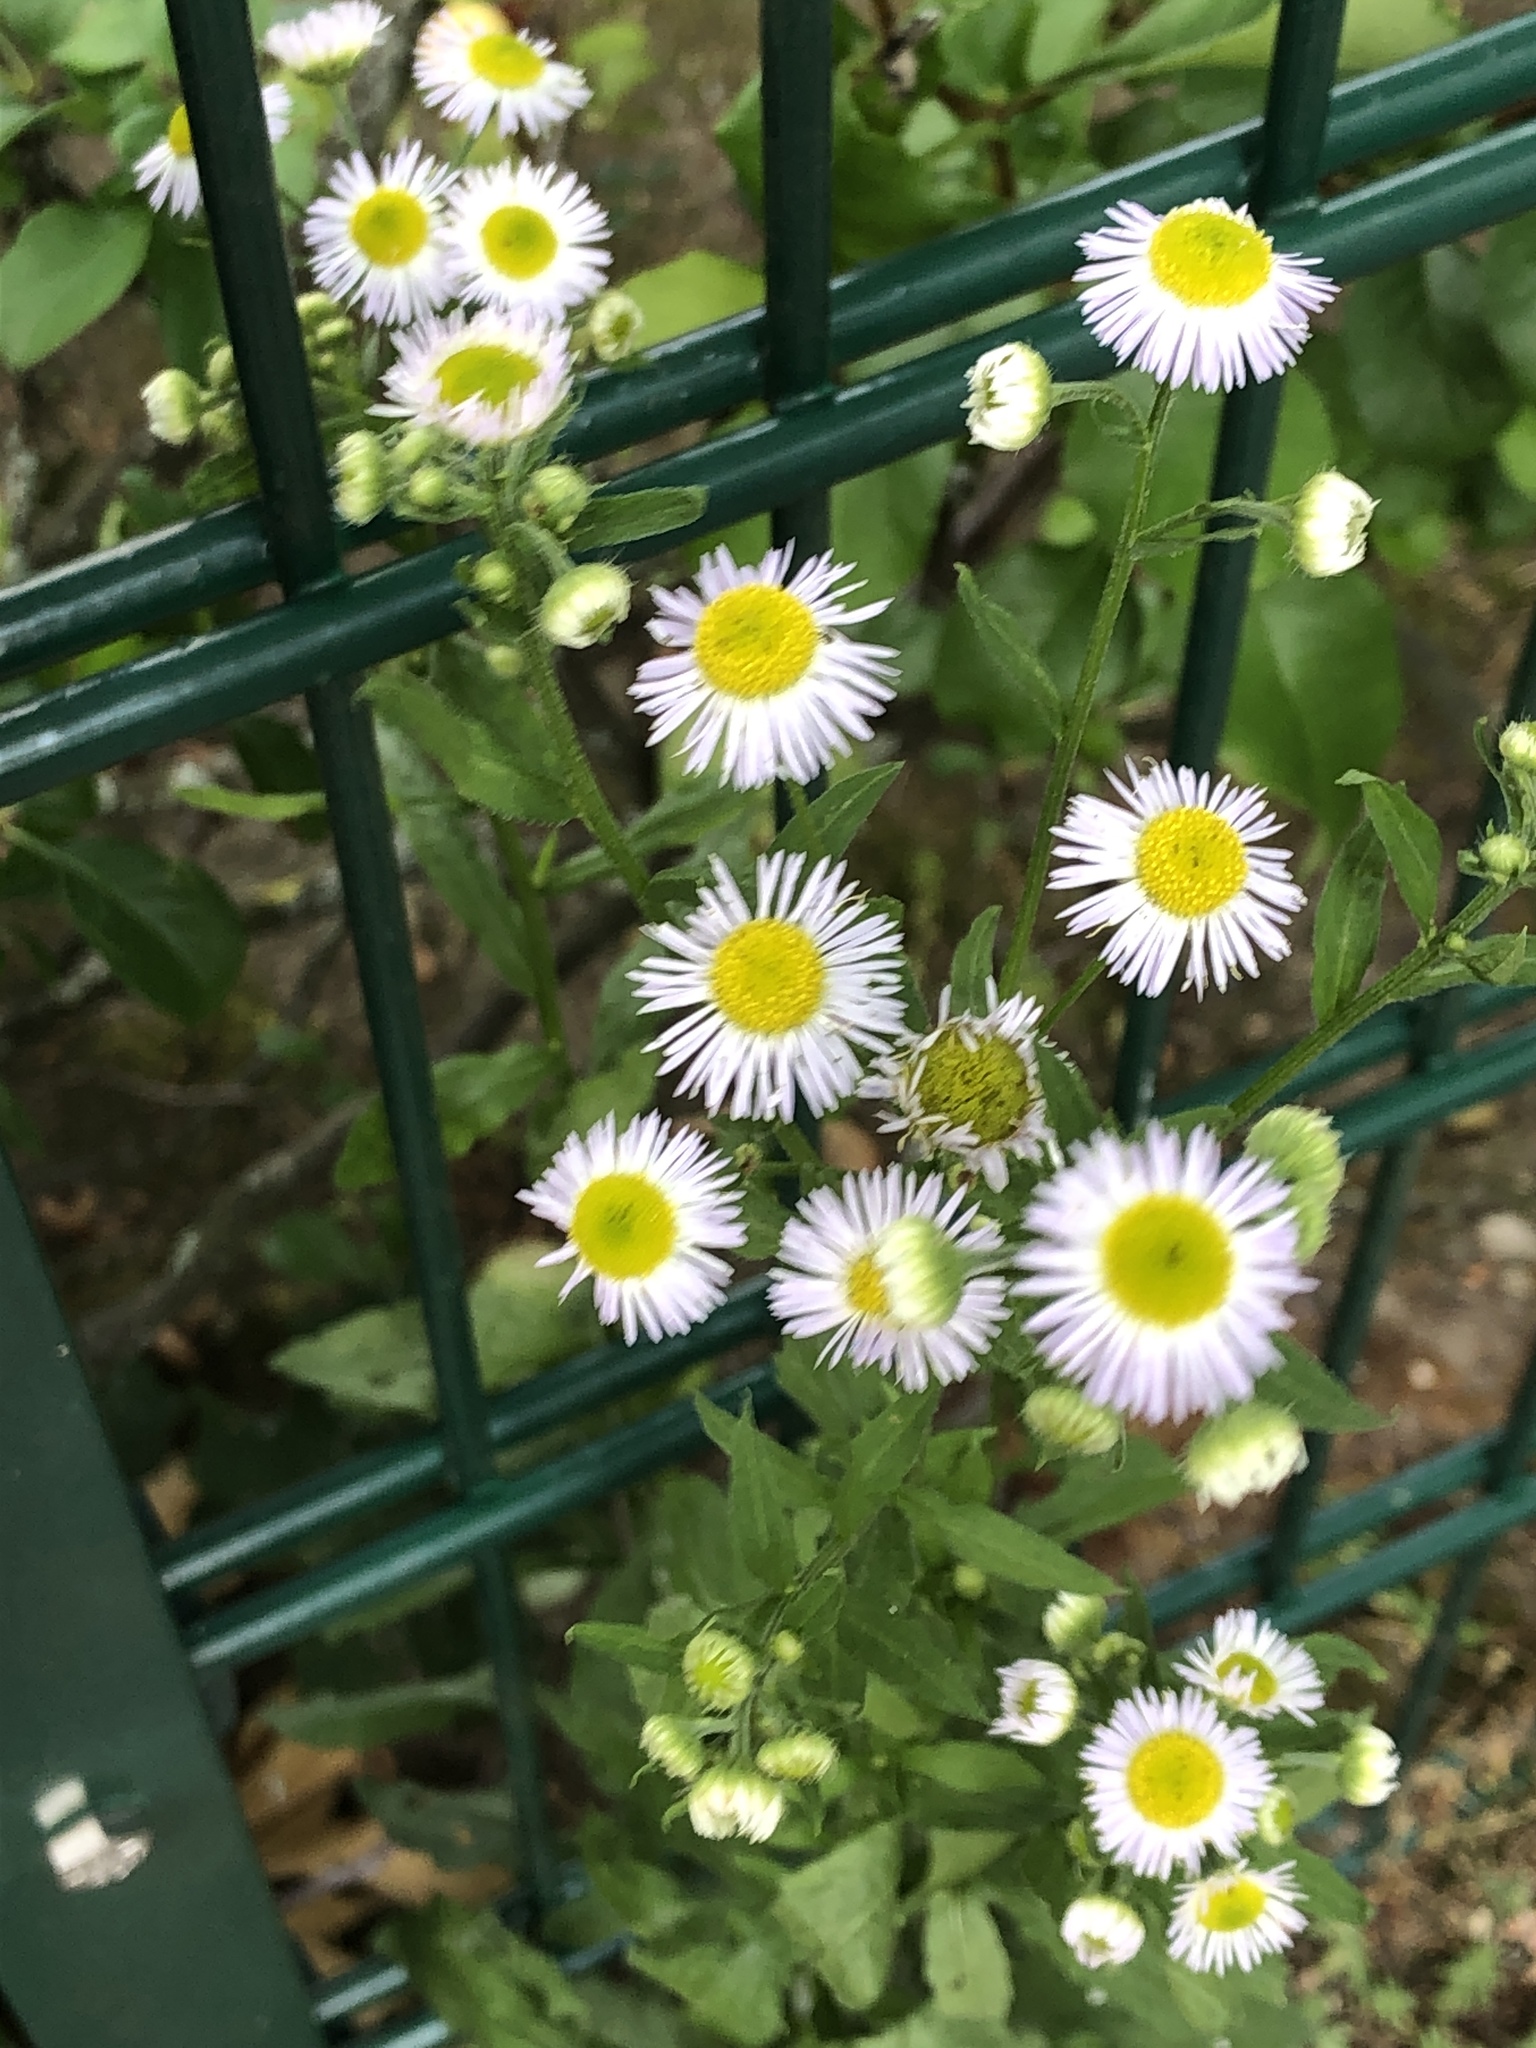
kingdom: Plantae
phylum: Tracheophyta
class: Magnoliopsida
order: Asterales
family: Asteraceae
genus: Erigeron
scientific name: Erigeron annuus
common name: Tall fleabane
